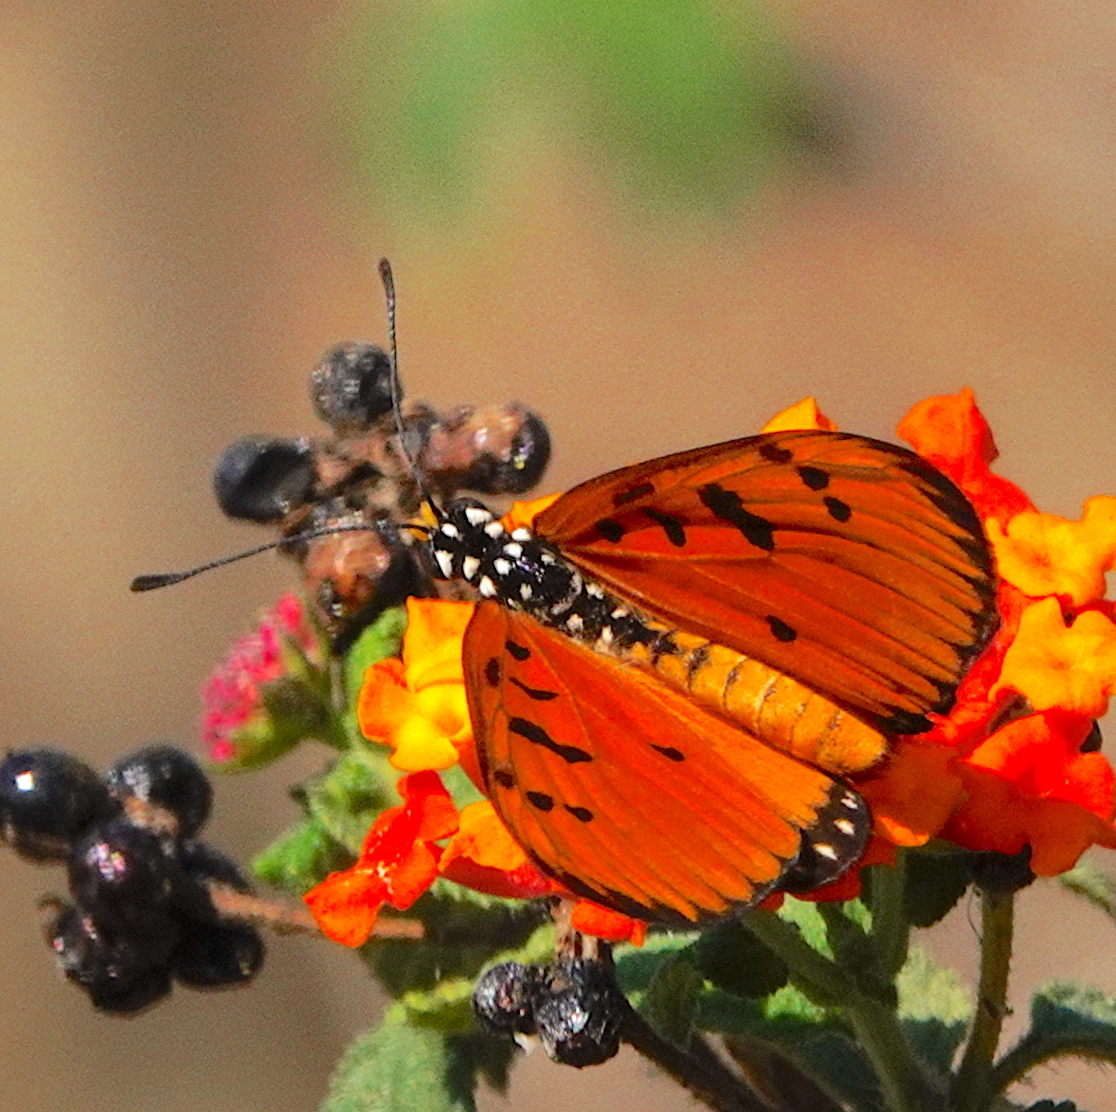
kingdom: Animalia
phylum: Arthropoda
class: Insecta
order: Lepidoptera
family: Nymphalidae
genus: Acraea
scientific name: Acraea terpsicore
